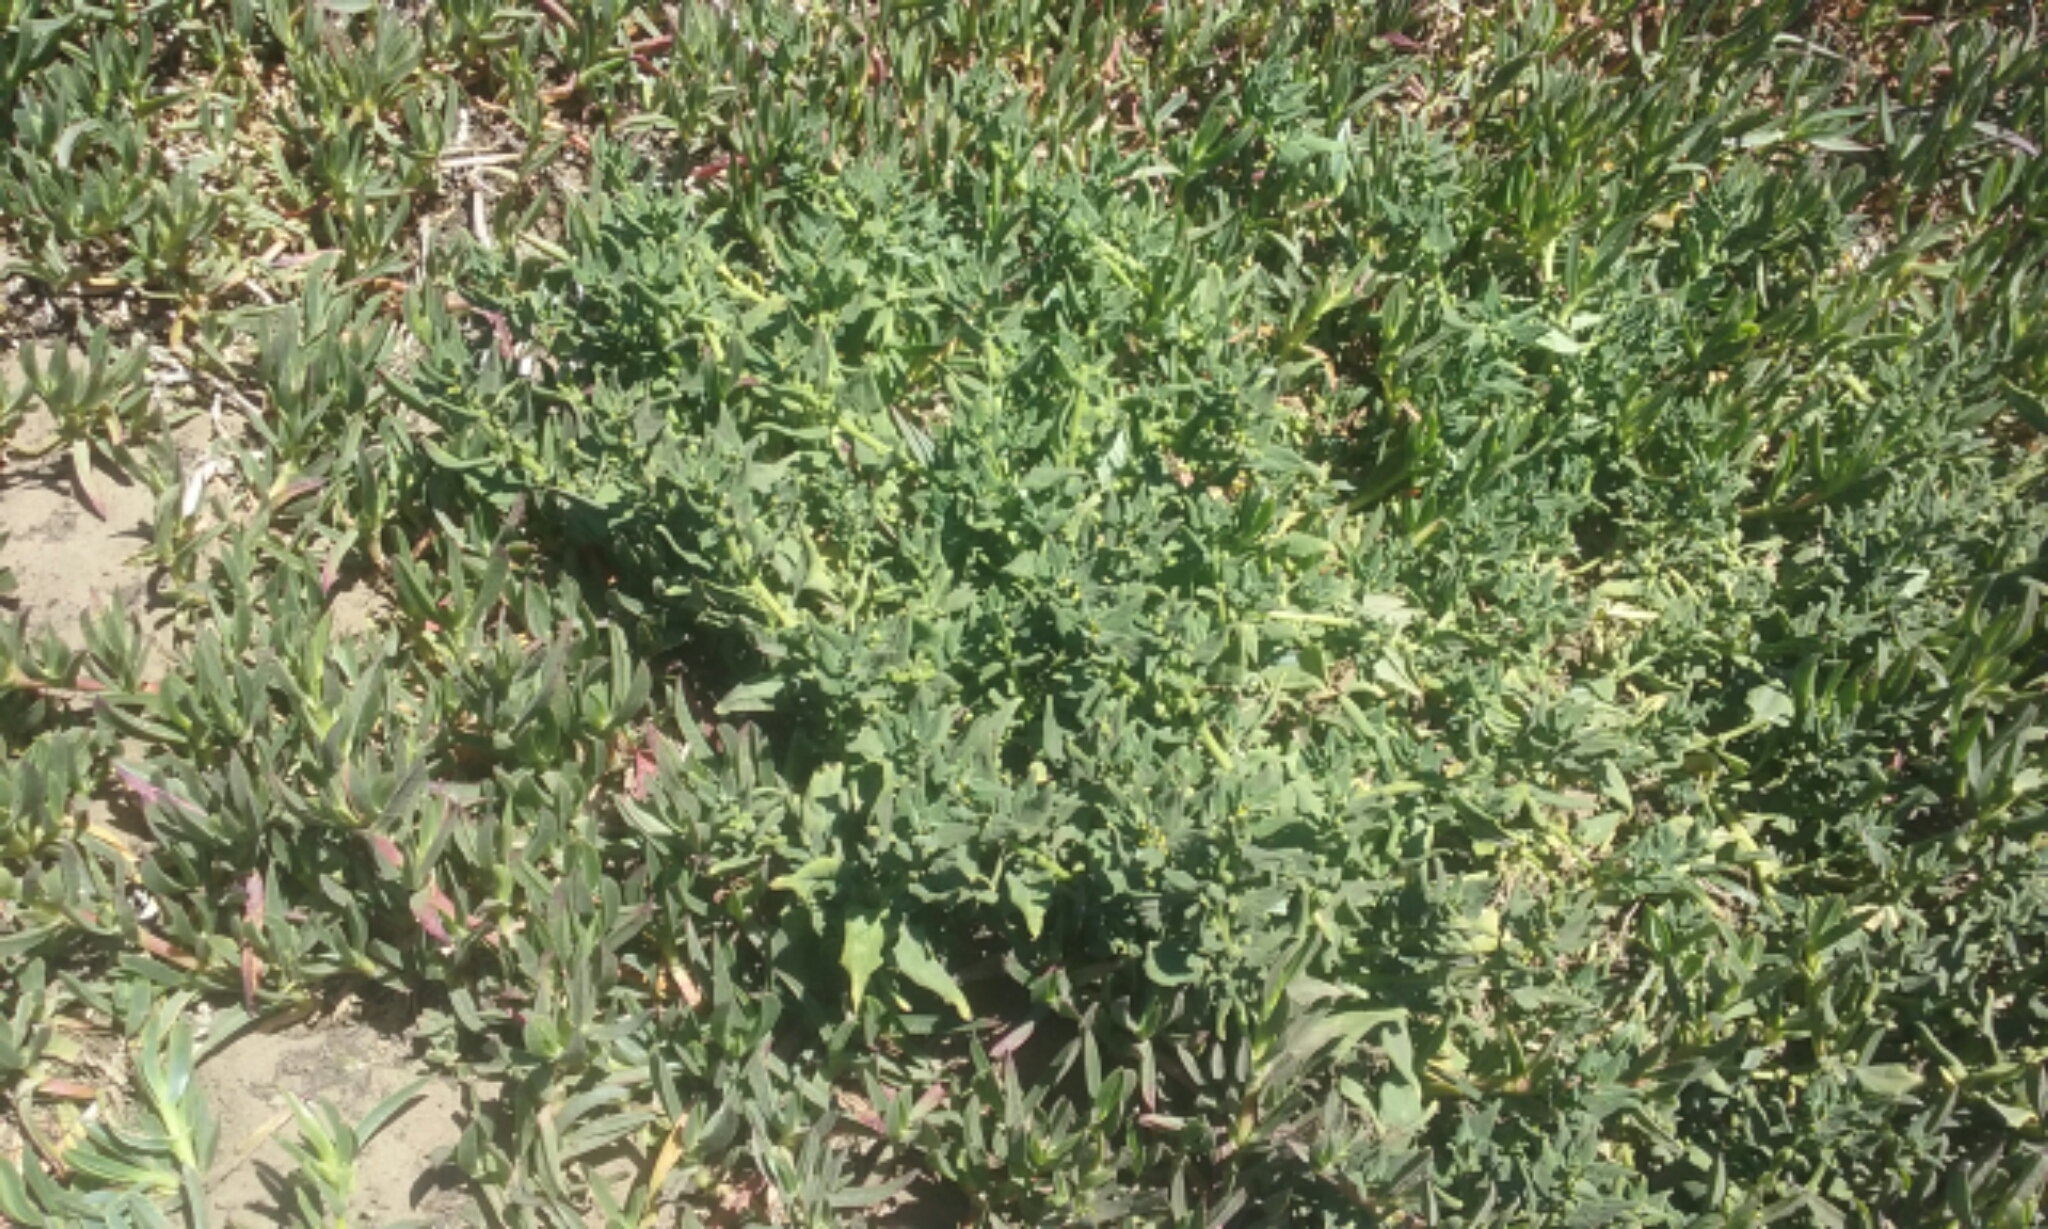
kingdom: Plantae
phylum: Tracheophyta
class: Magnoliopsida
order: Caryophyllales
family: Aizoaceae
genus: Tetragonia
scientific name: Tetragonia tetragonoides
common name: New zealand-spinach
